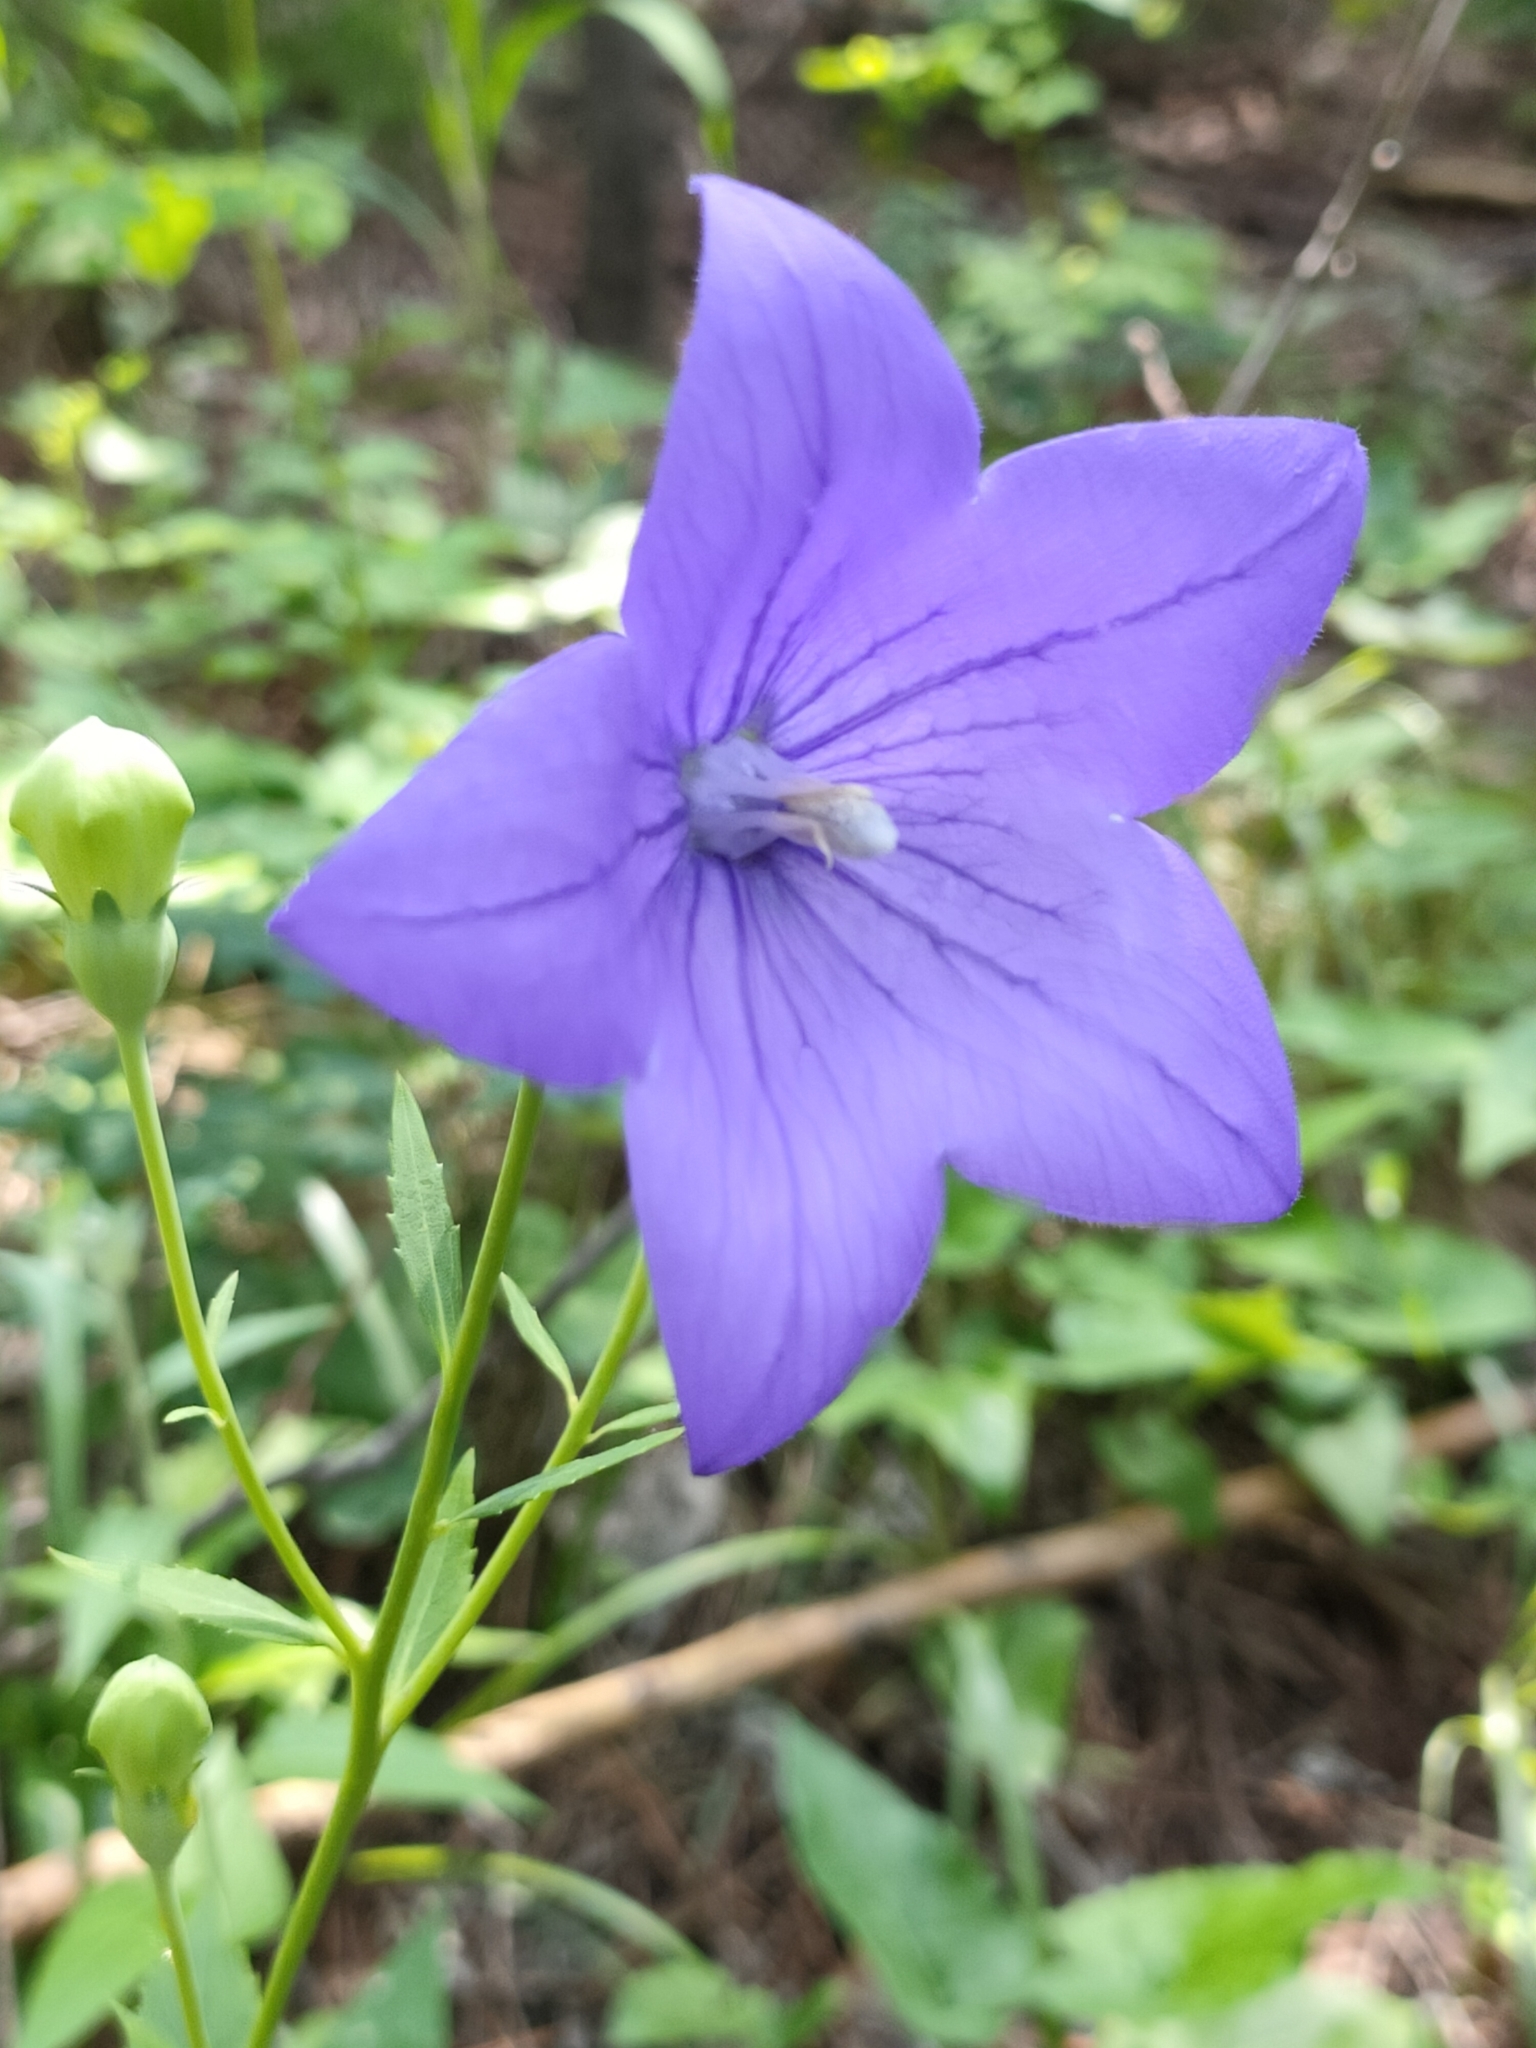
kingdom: Plantae
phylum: Tracheophyta
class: Magnoliopsida
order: Asterales
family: Campanulaceae
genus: Platycodon
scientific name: Platycodon grandiflorus
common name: Balloon-flower
